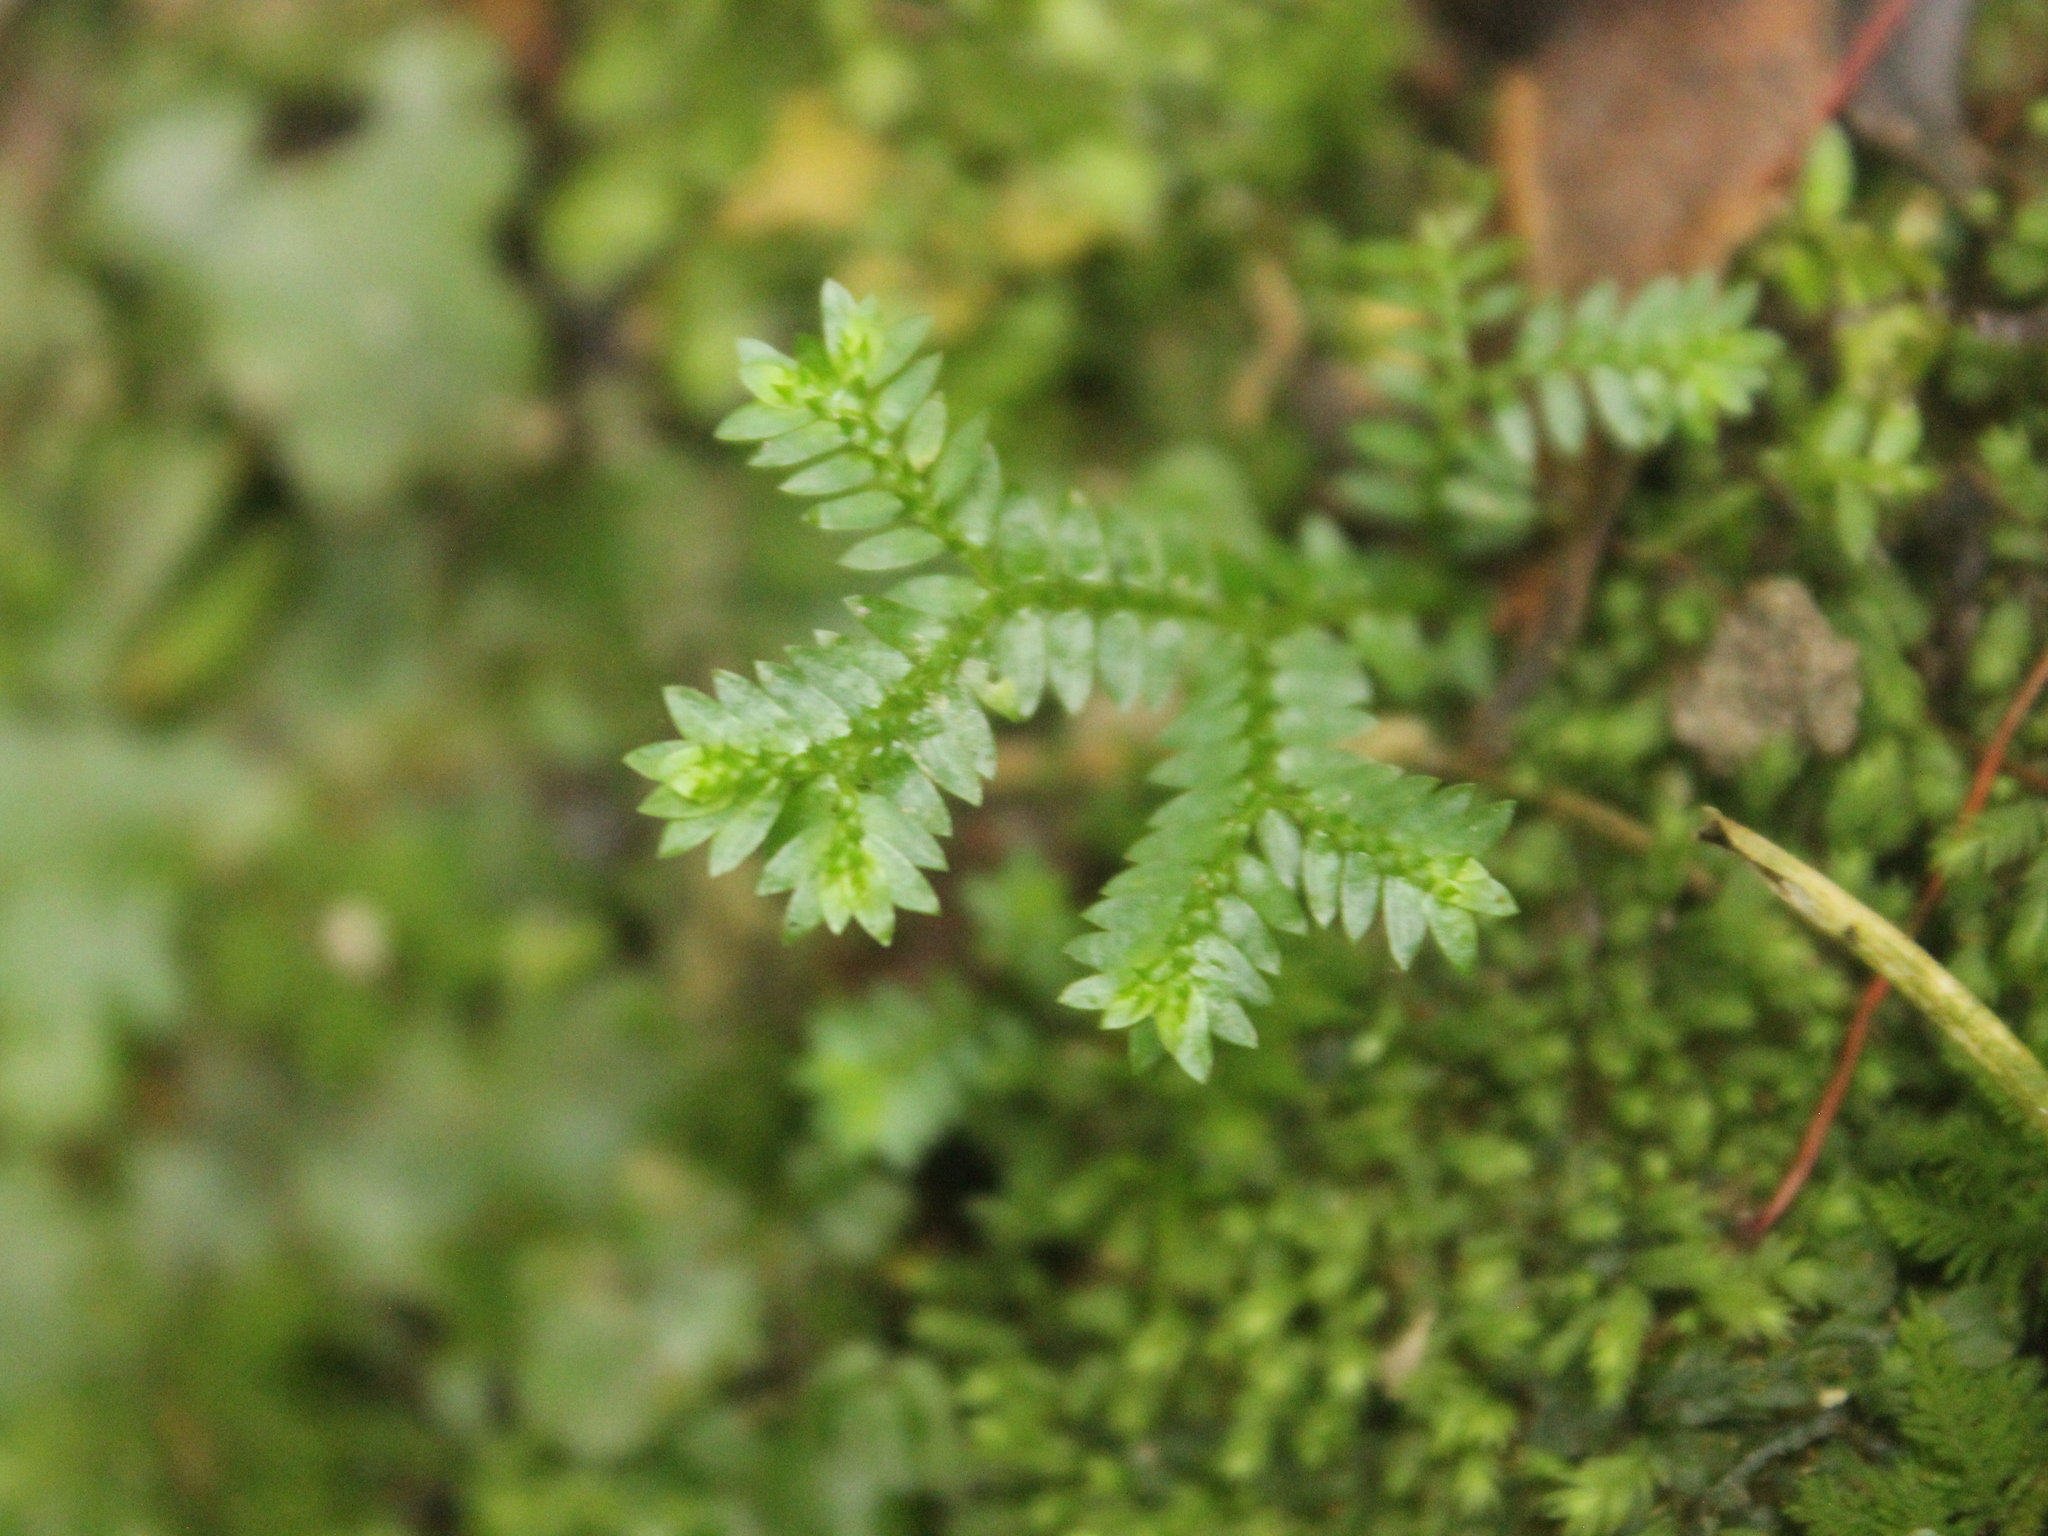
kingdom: Plantae
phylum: Tracheophyta
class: Lycopodiopsida
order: Selaginellales
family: Selaginellaceae
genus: Selaginella
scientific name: Selaginella kraussiana
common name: Krauss' spikemoss
